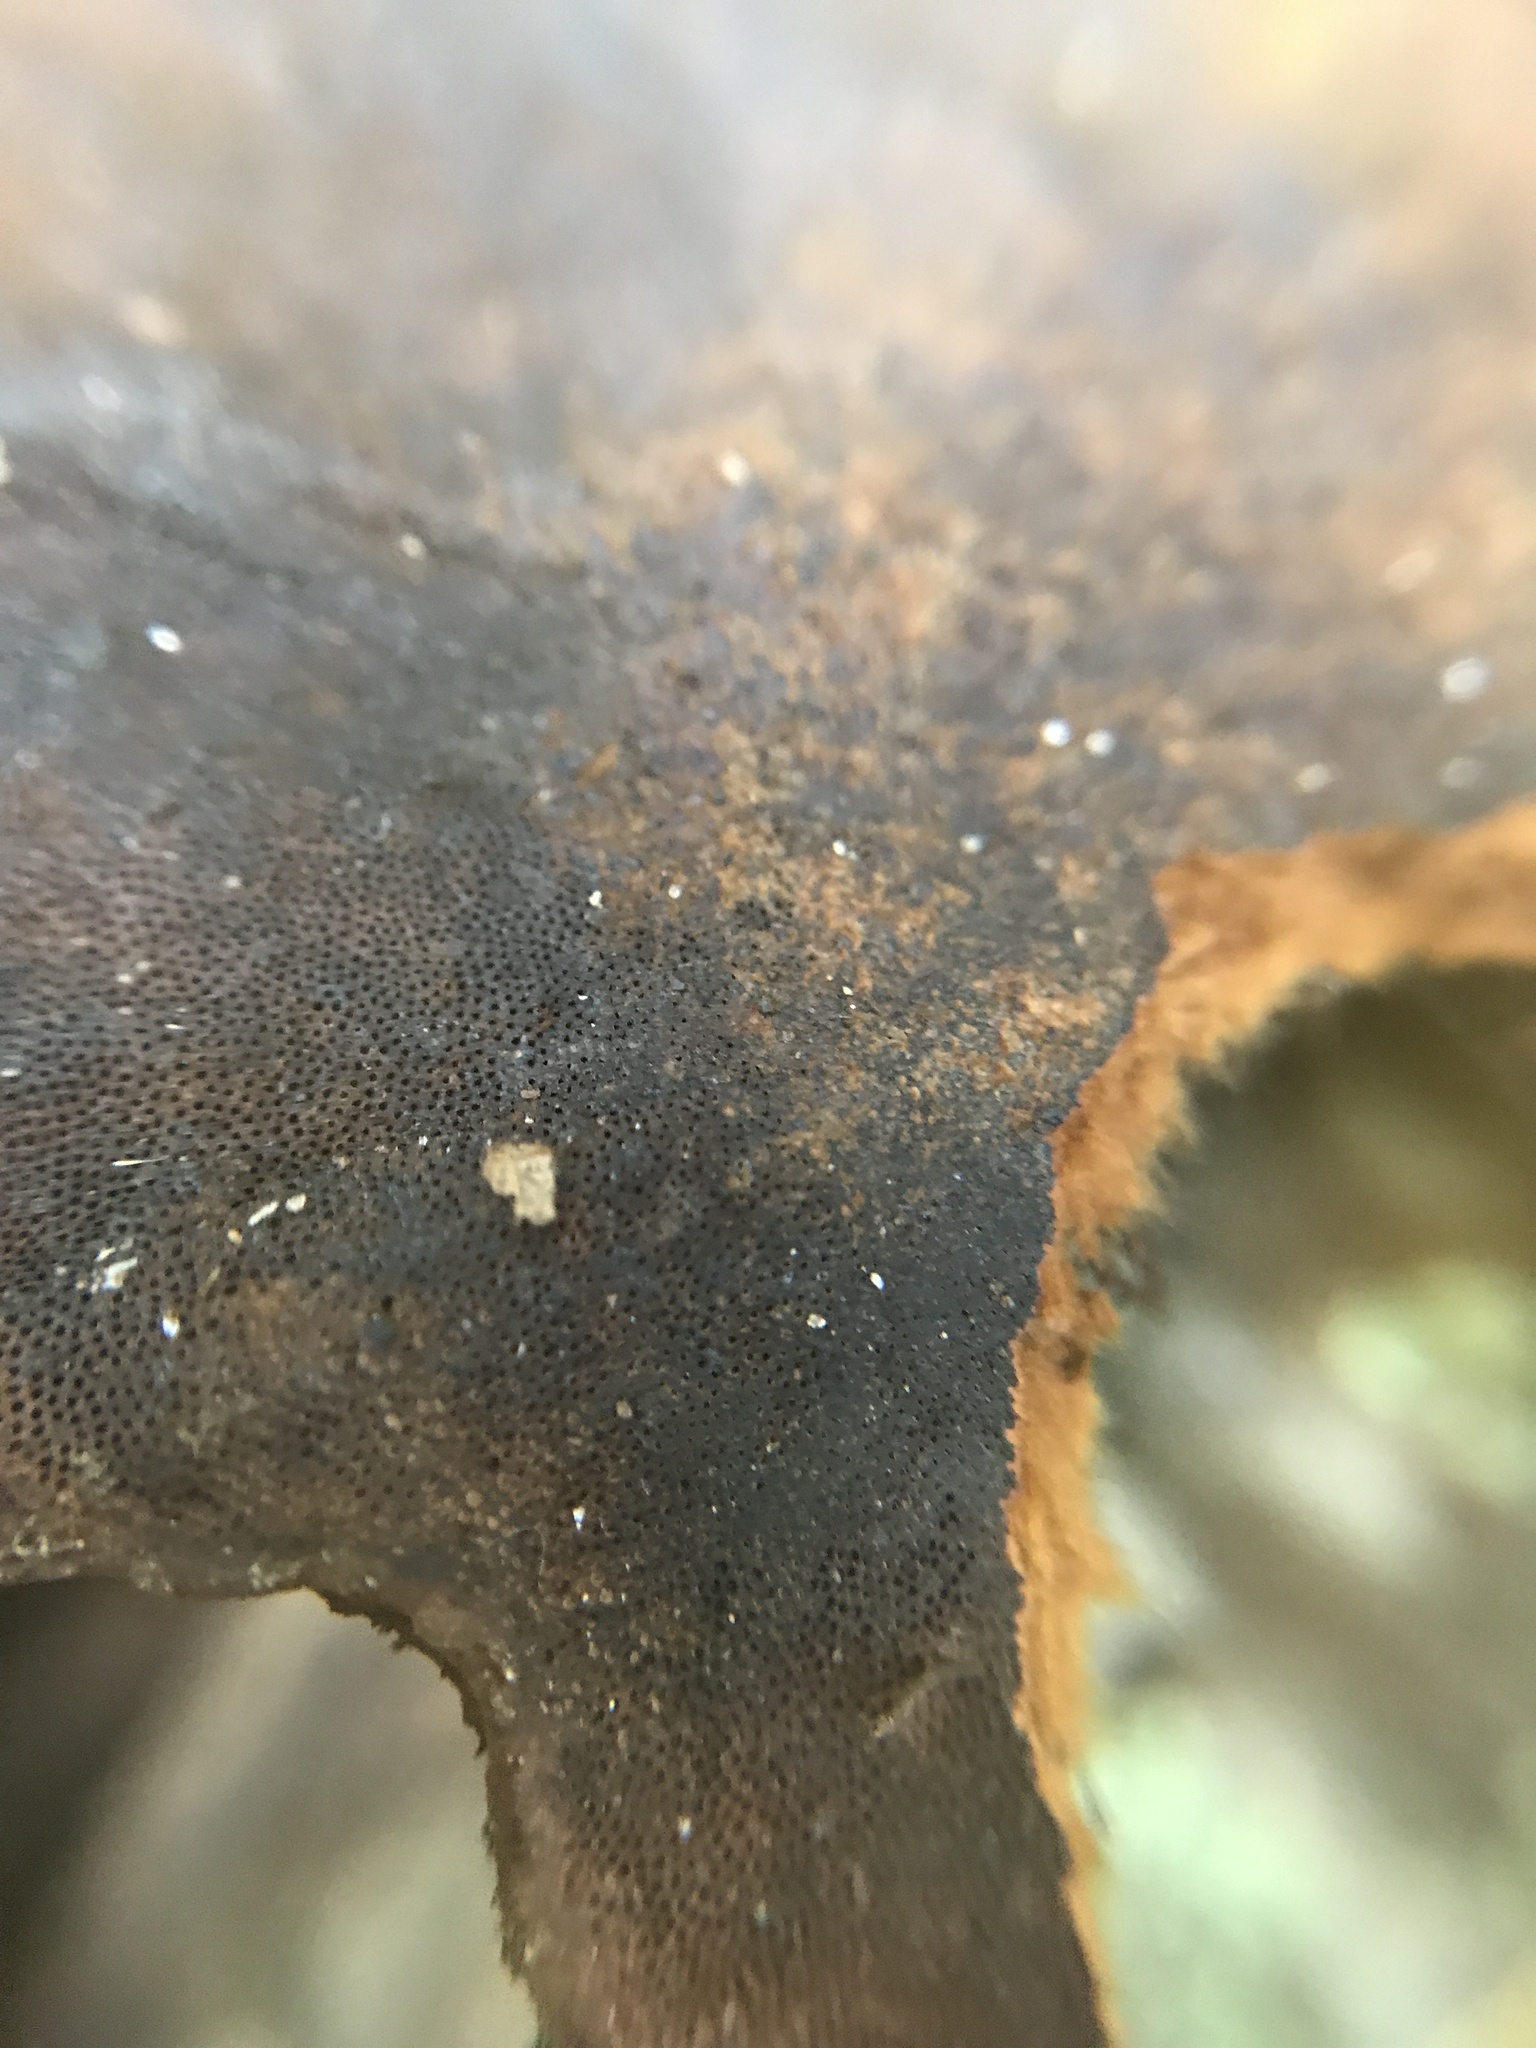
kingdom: Fungi
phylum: Basidiomycota
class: Agaricomycetes
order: Polyporales
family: Cerrenaceae
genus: Cerrena
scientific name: Cerrena hydnoides
